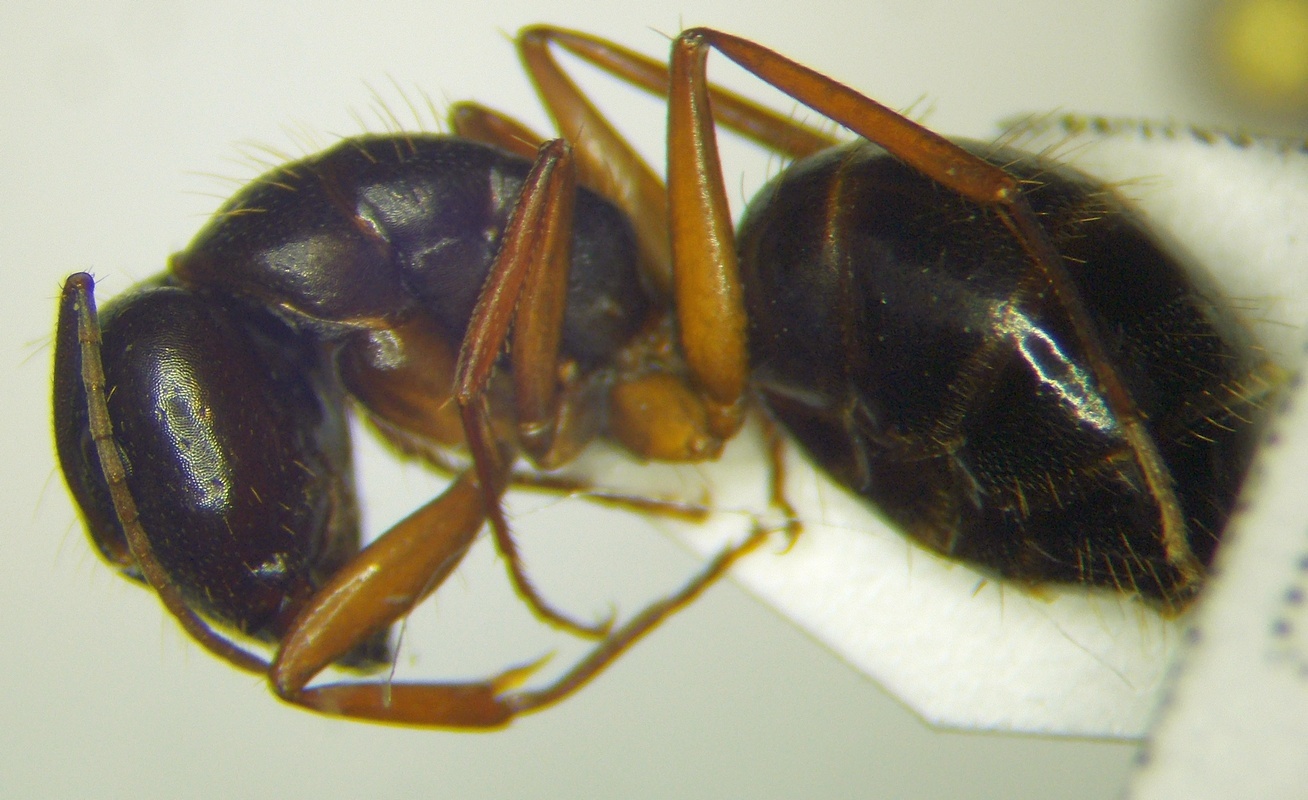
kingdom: Animalia
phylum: Arthropoda
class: Insecta
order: Hymenoptera
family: Formicidae
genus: Camponotus
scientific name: Camponotus aethiops
